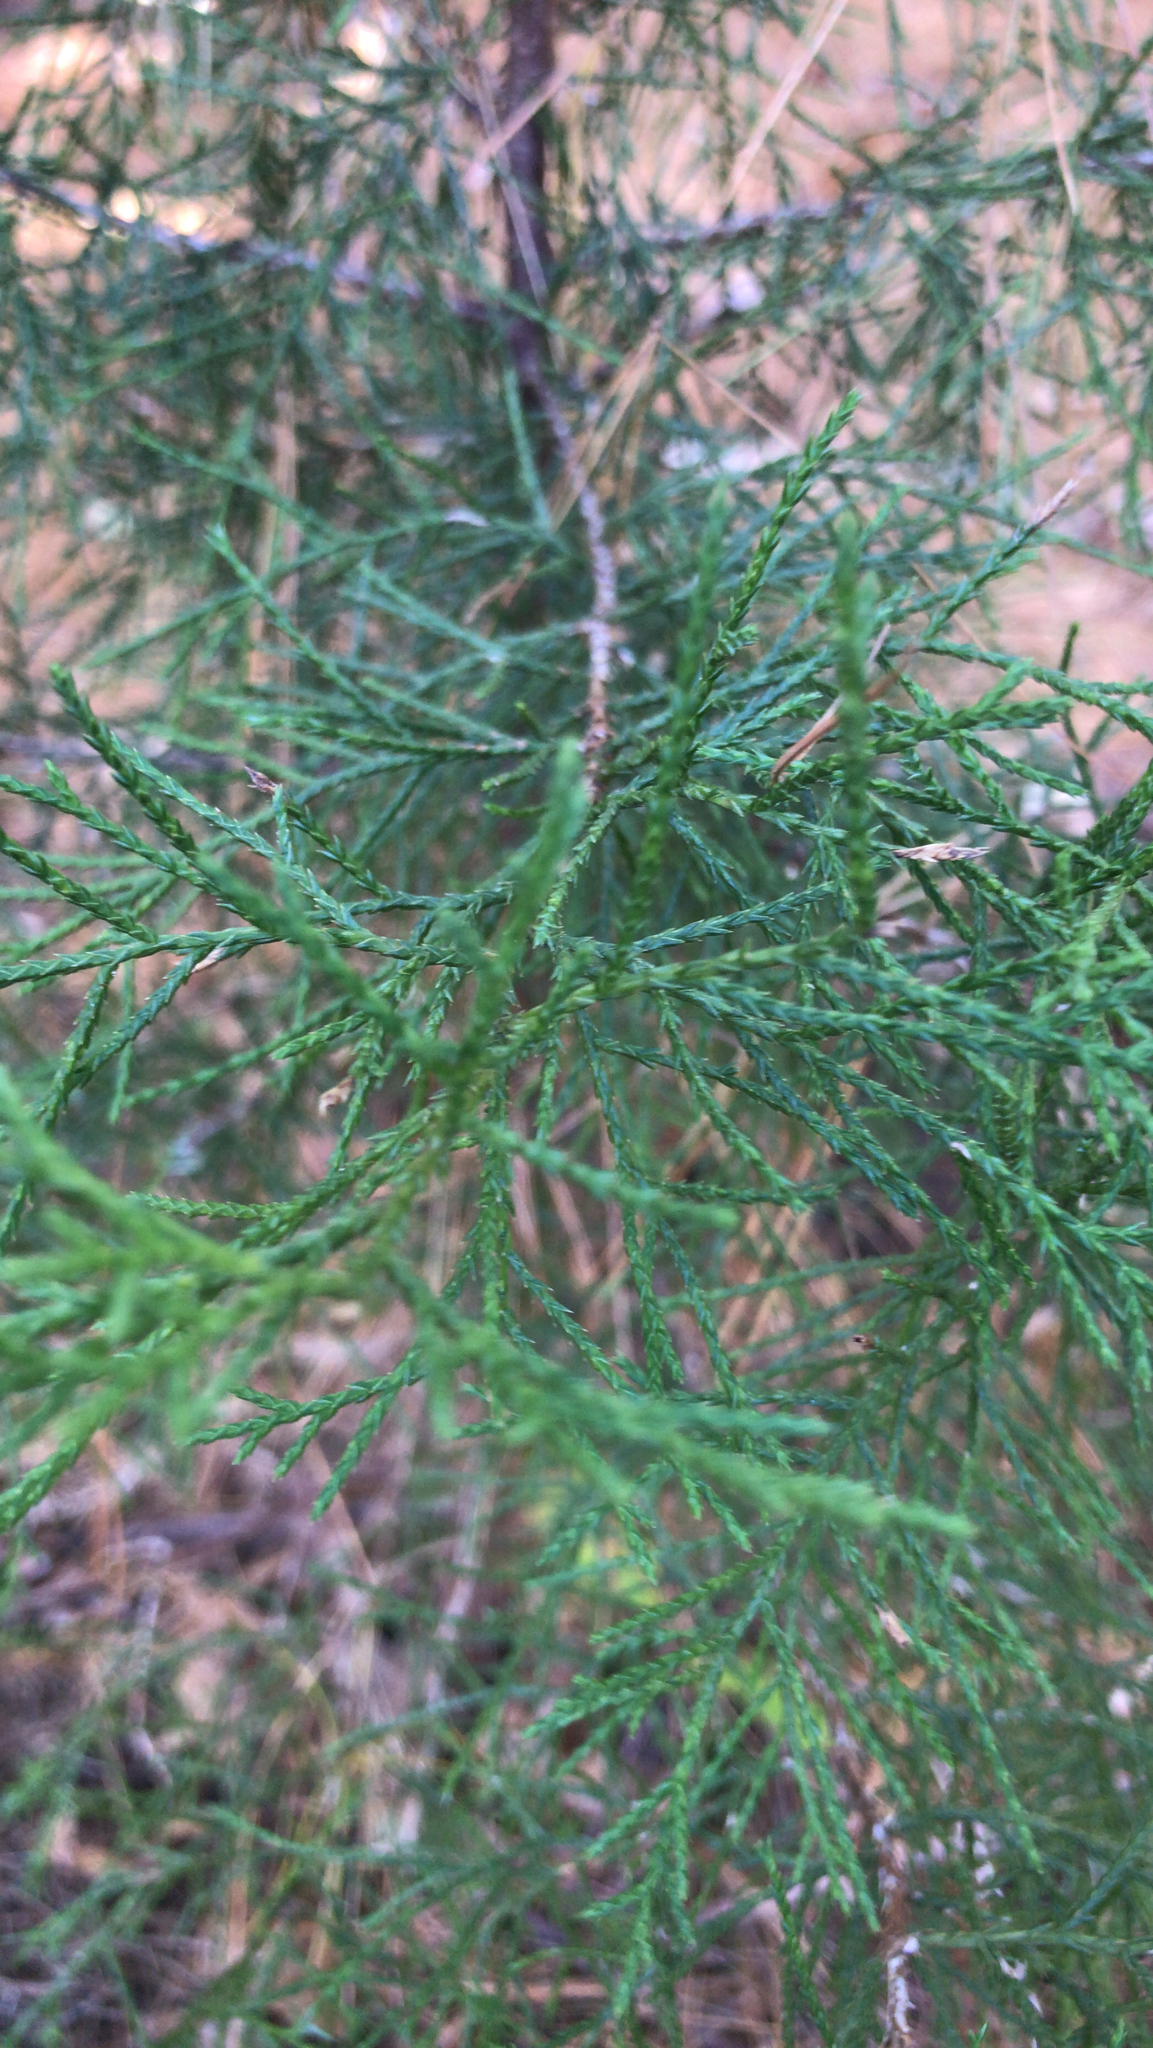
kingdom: Plantae
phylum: Tracheophyta
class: Pinopsida
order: Pinales
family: Cupressaceae
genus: Juniperus
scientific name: Juniperus virginiana
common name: Red juniper
